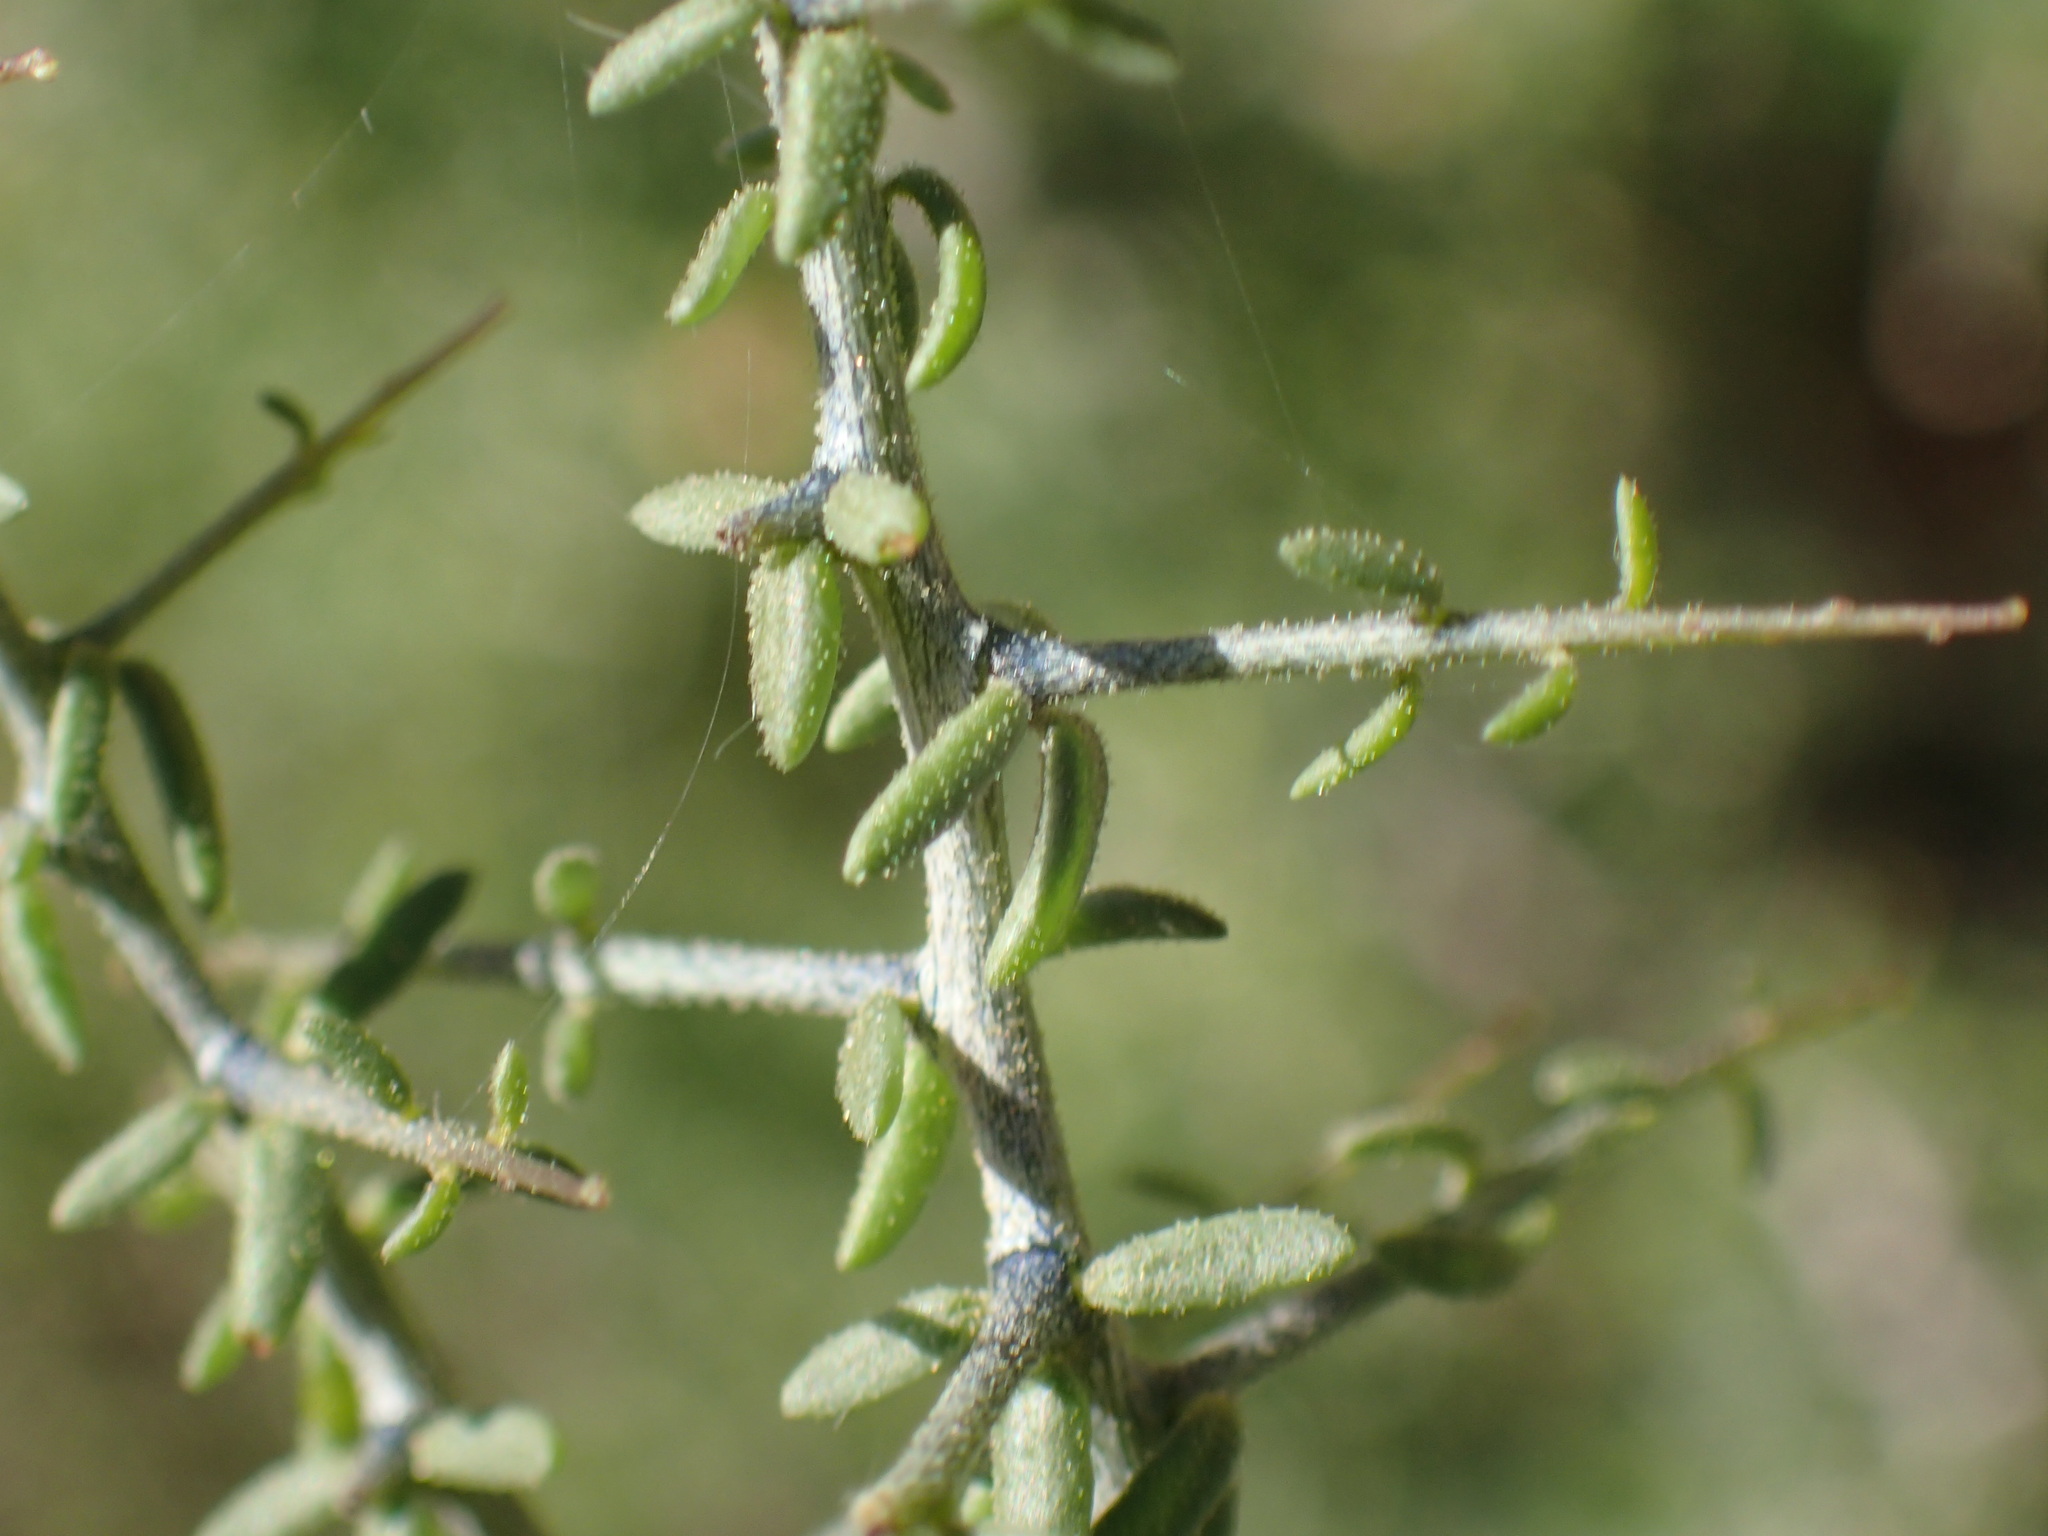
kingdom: Plantae
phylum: Tracheophyta
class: Magnoliopsida
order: Solanales
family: Solanaceae
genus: Lycium
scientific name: Lycium cinereum
